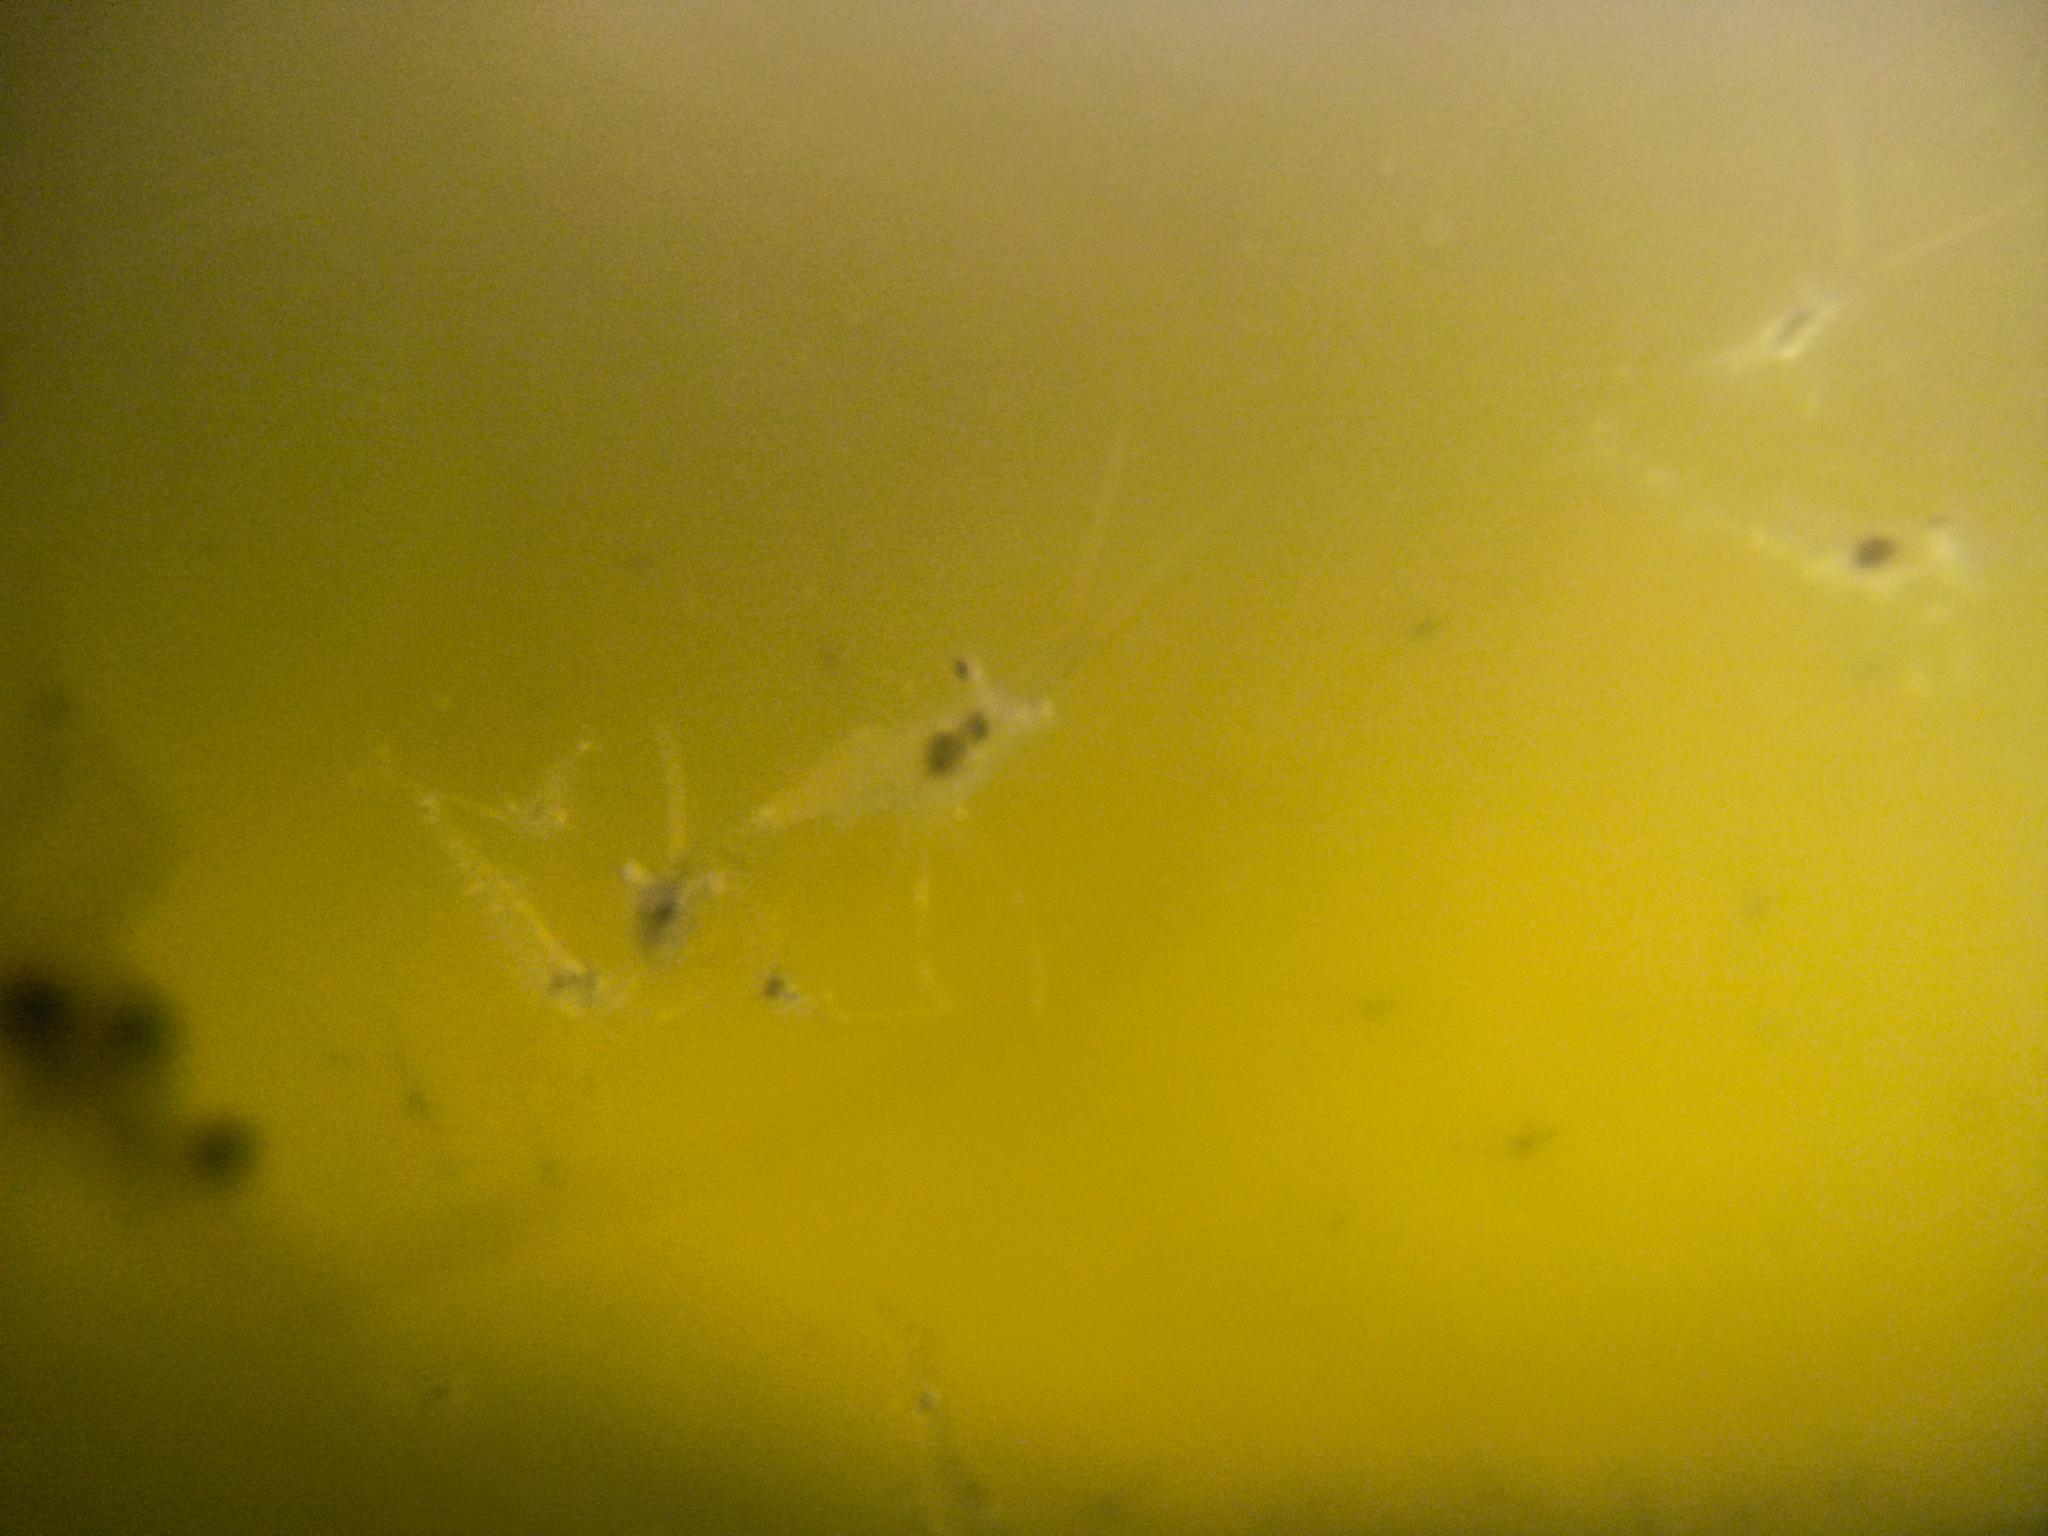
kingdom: Animalia
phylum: Arthropoda
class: Malacostraca
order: Decapoda
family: Palaemonidae
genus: Palaemon
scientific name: Palaemon affinis
